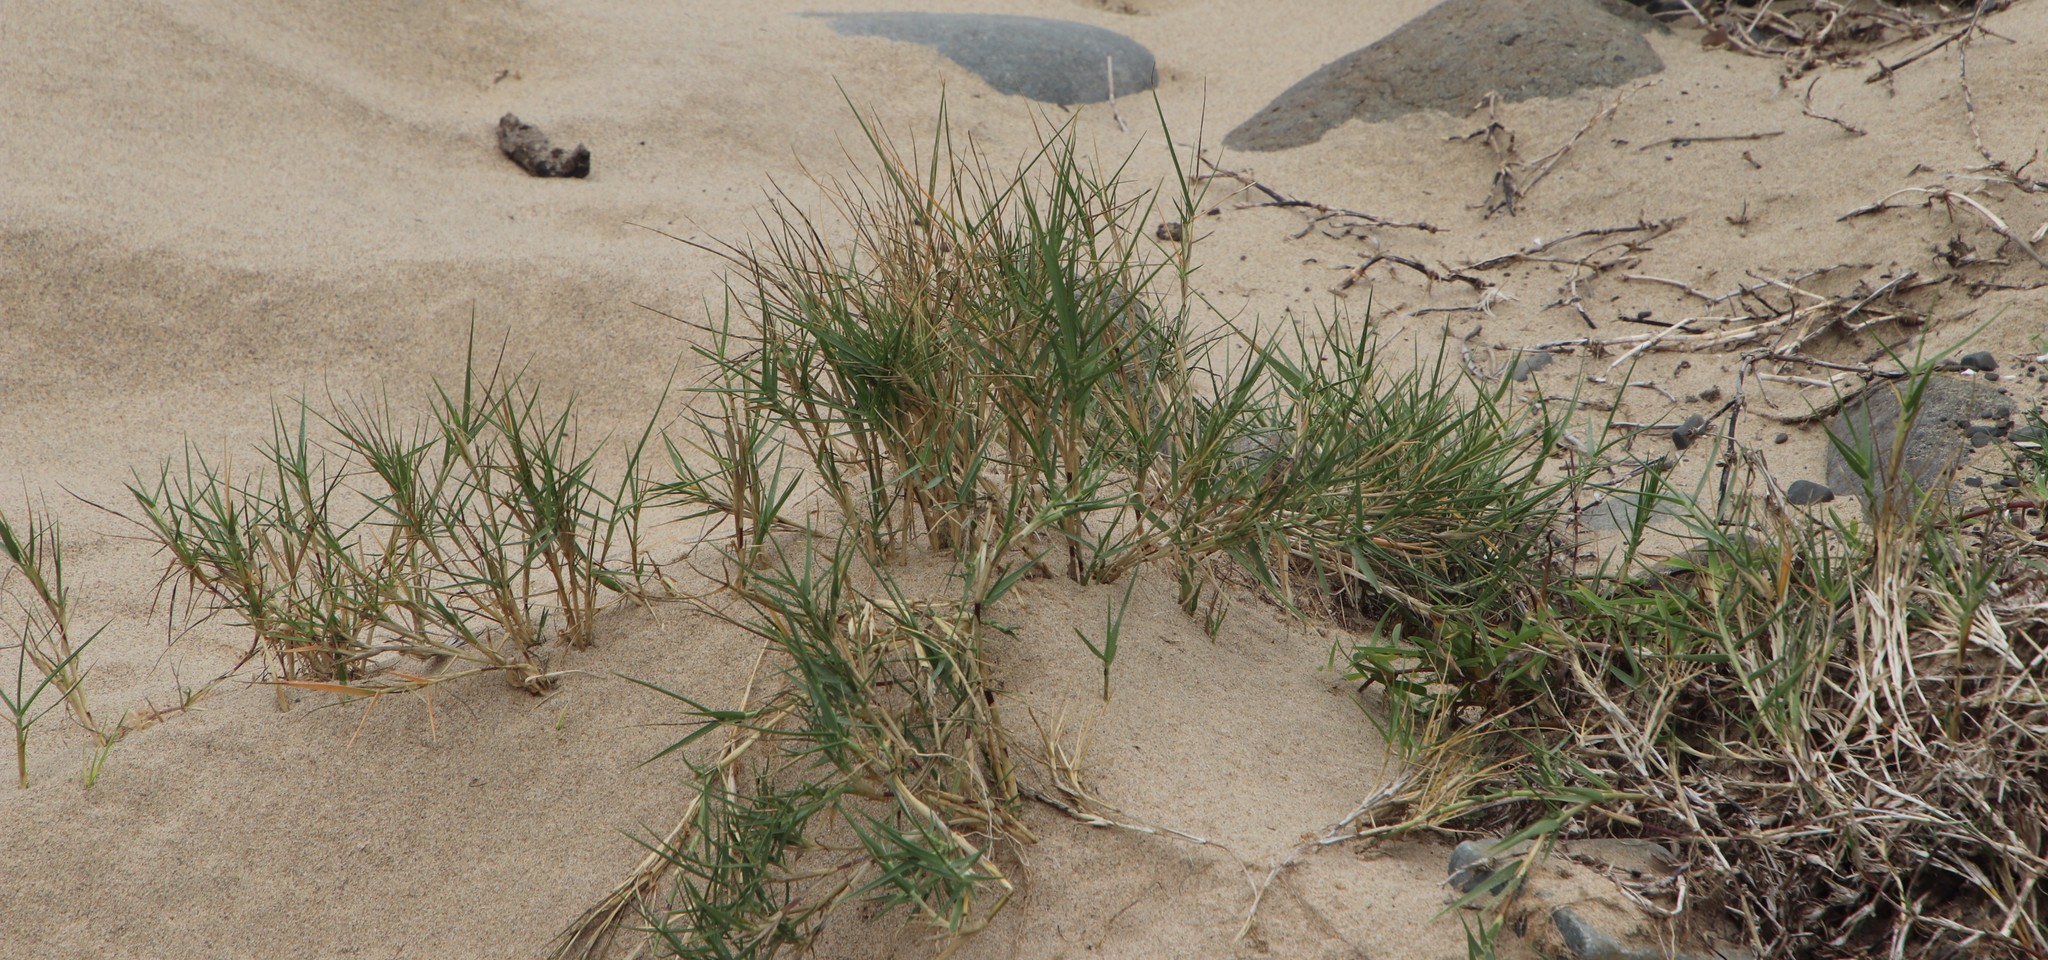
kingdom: Plantae
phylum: Tracheophyta
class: Liliopsida
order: Poales
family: Poaceae
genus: Sporobolus
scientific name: Sporobolus virginicus
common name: Beach dropseed
